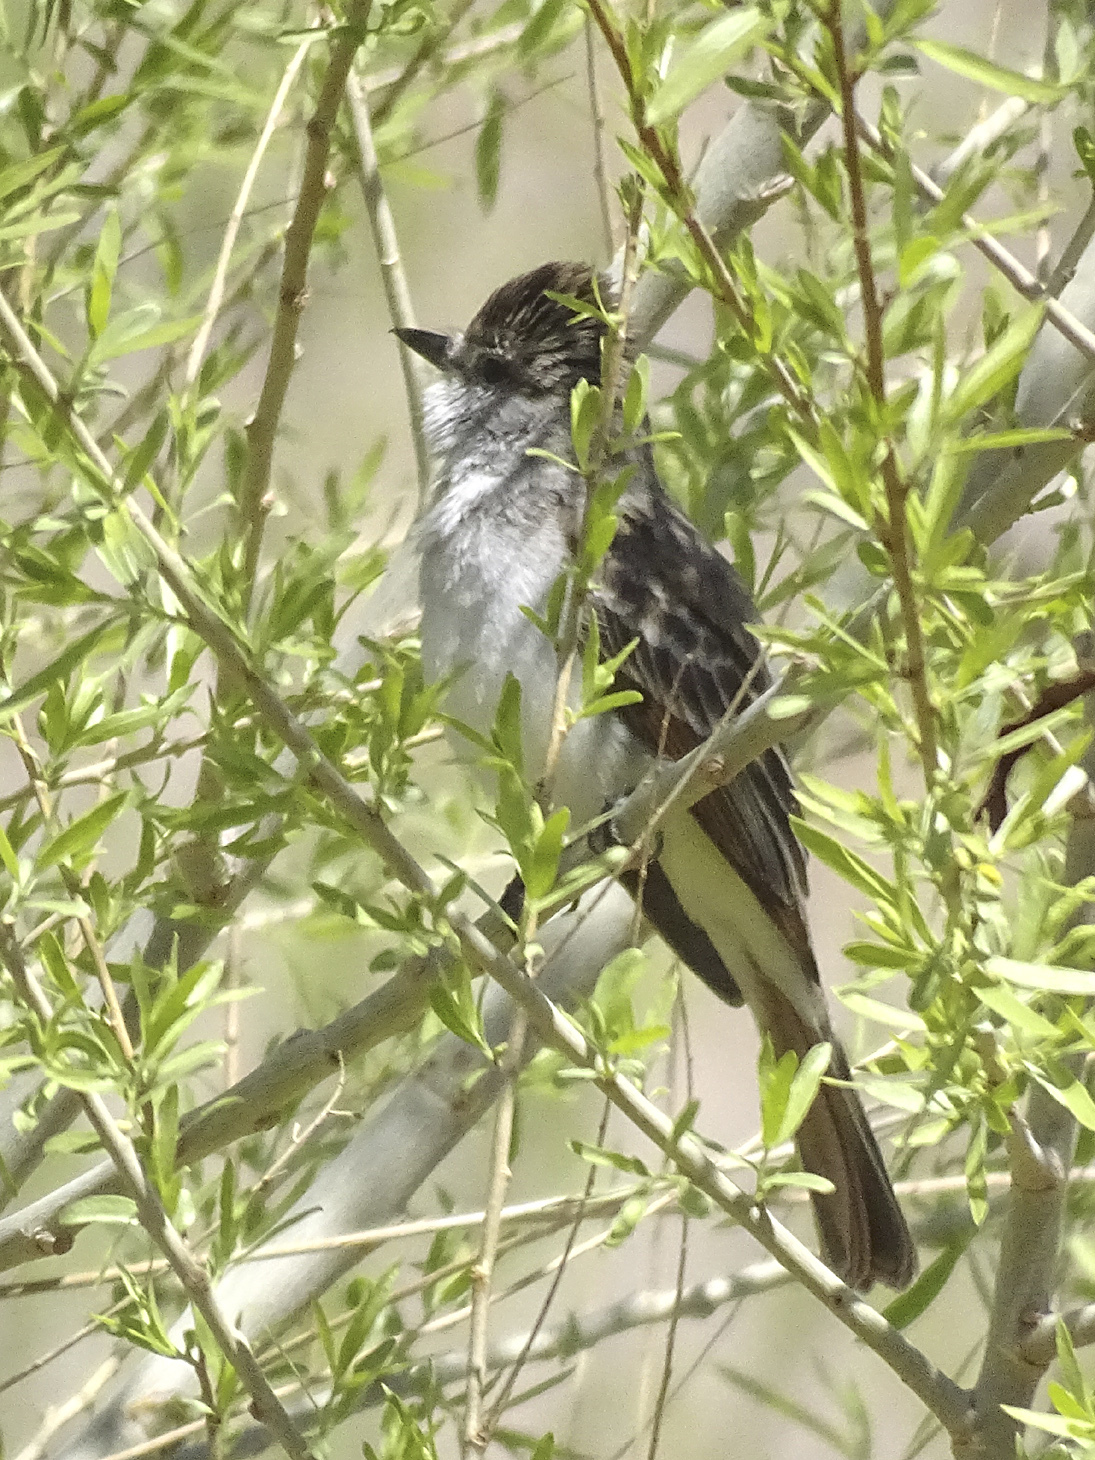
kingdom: Animalia
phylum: Chordata
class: Aves
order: Passeriformes
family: Tyrannidae
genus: Myiarchus
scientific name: Myiarchus cinerascens
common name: Ash-throated flycatcher
